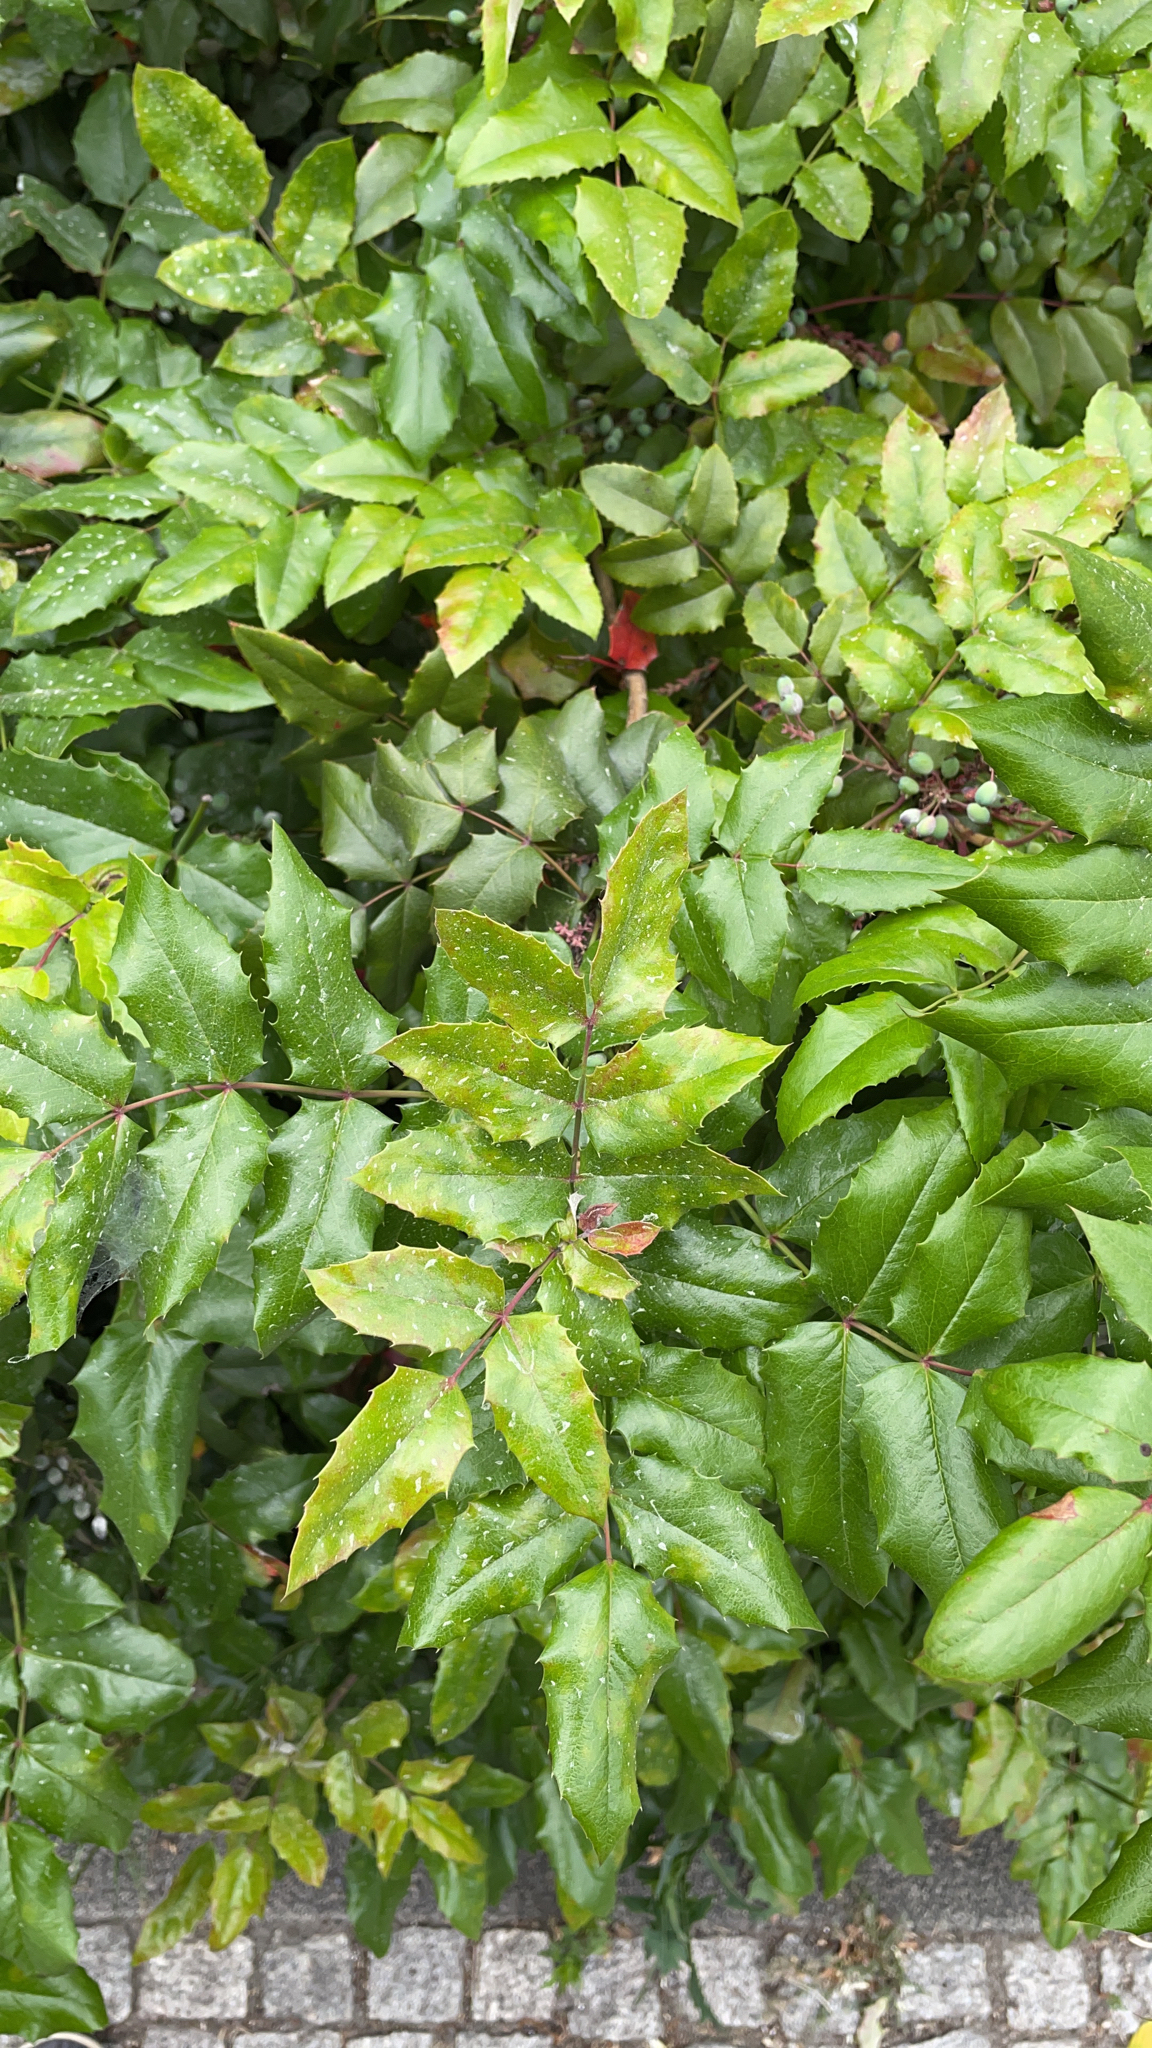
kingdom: Plantae
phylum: Tracheophyta
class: Magnoliopsida
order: Ranunculales
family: Berberidaceae
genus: Mahonia
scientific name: Mahonia aquifolium
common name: Oregon-grape
